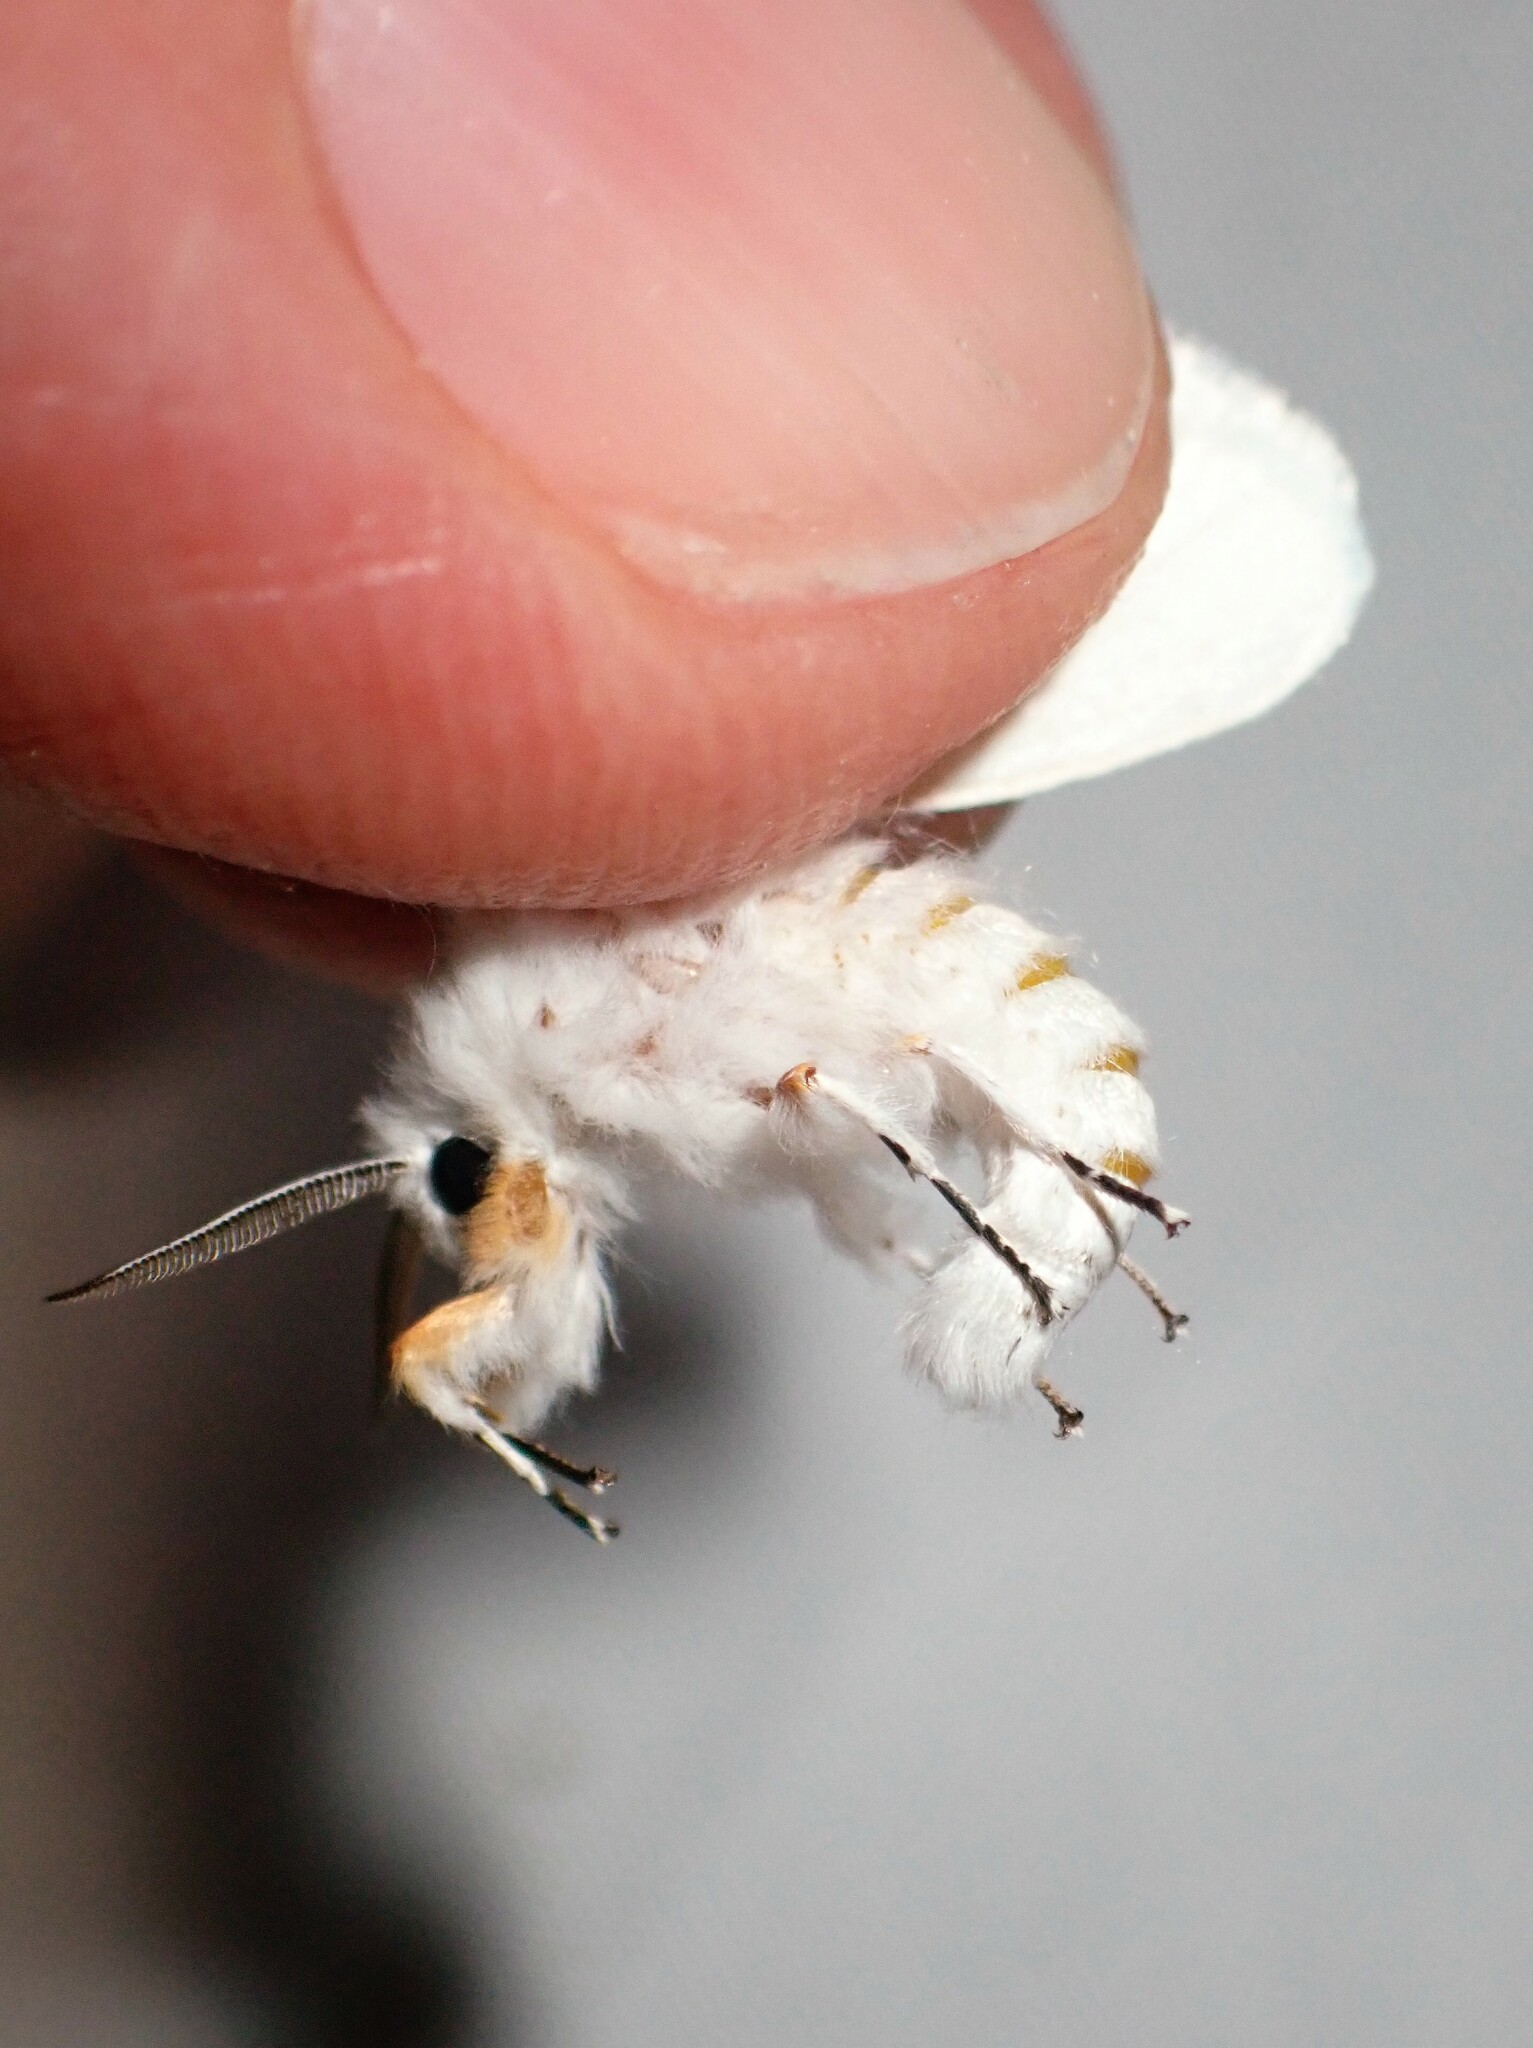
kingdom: Animalia
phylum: Arthropoda
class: Insecta
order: Lepidoptera
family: Erebidae
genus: Hyphantria
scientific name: Hyphantria cunea
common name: American white moth
